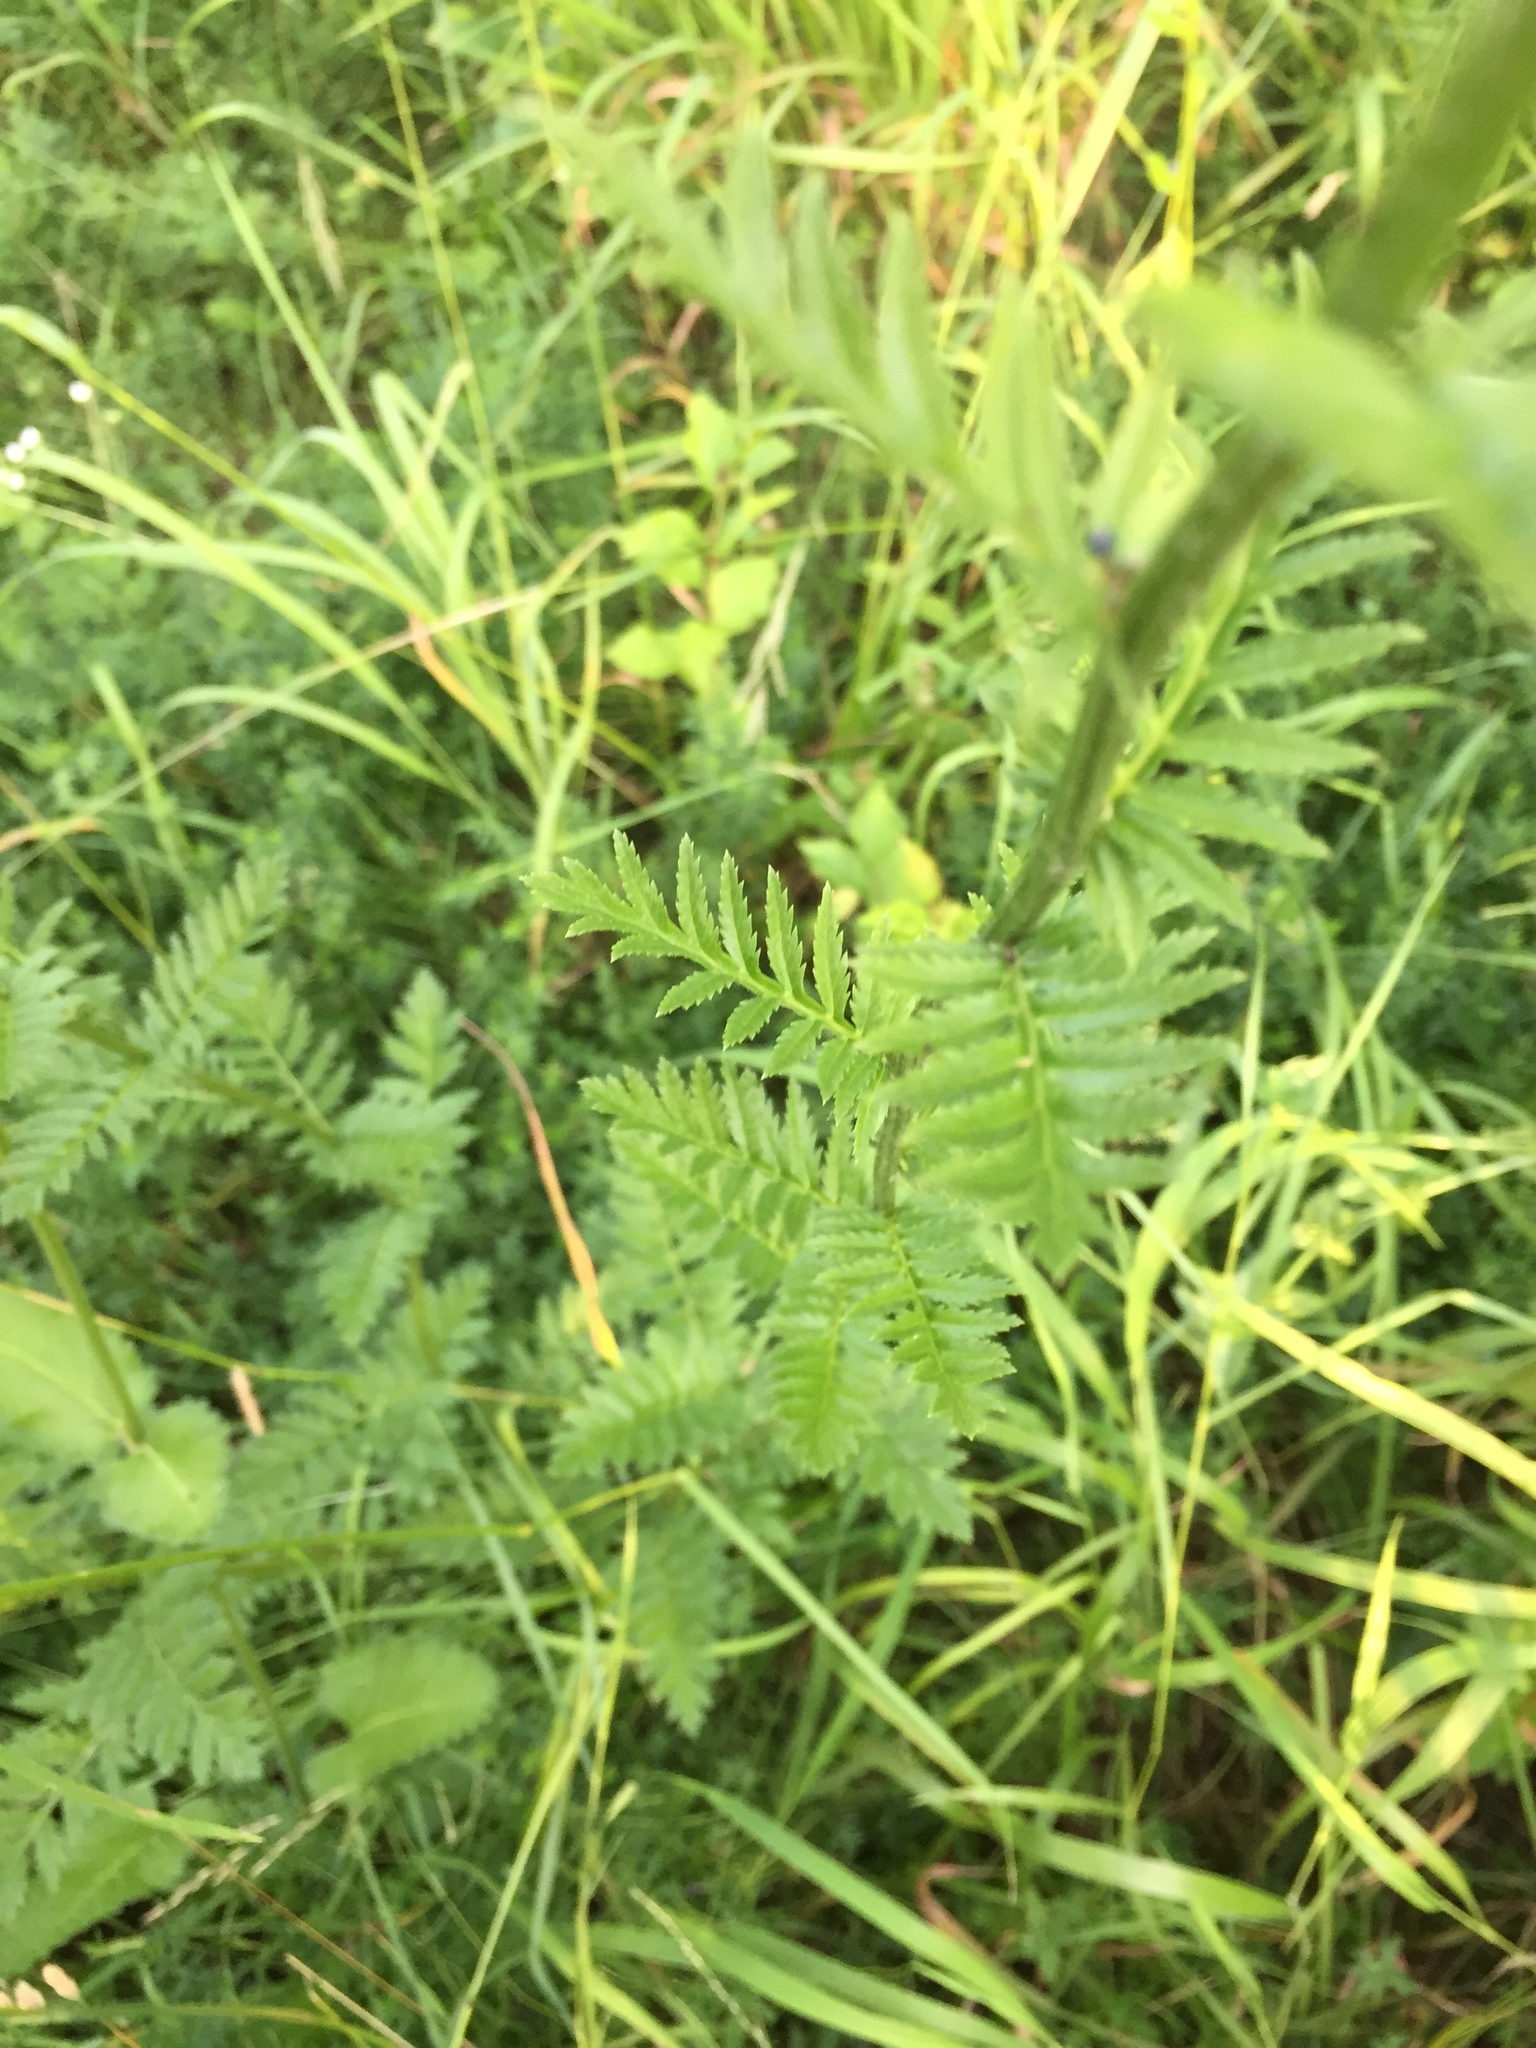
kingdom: Plantae
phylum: Tracheophyta
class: Magnoliopsida
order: Asterales
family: Asteraceae
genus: Tanacetum
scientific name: Tanacetum corymbosum
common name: Scentless feverfew
